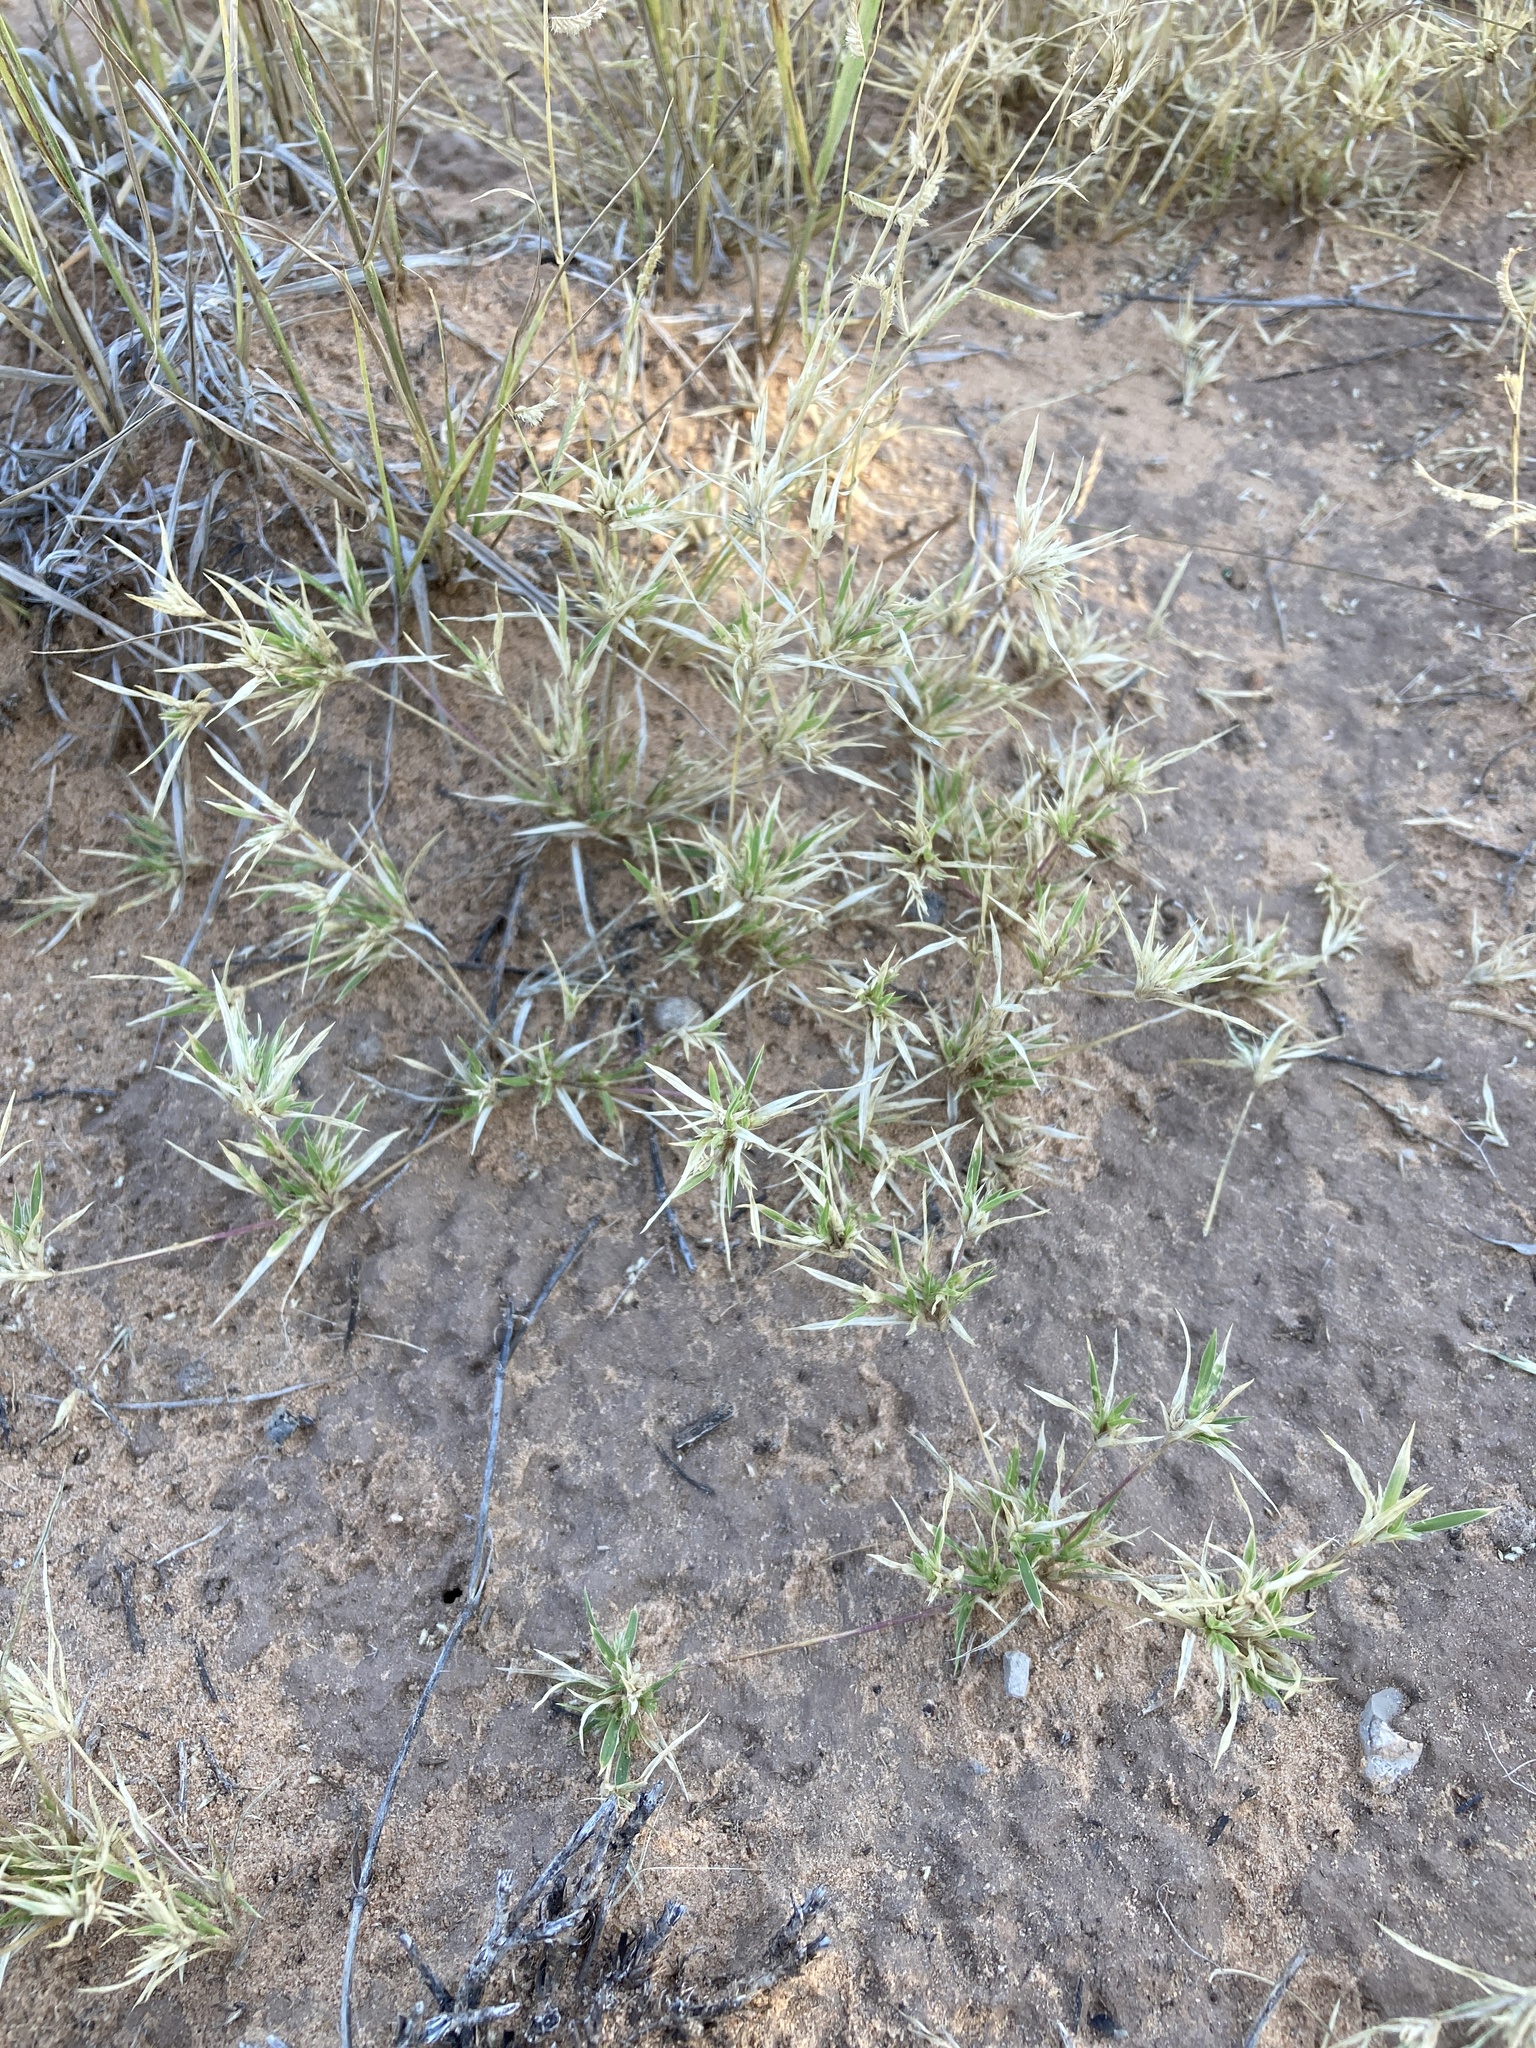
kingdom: Plantae
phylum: Tracheophyta
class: Liliopsida
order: Poales
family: Poaceae
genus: Munroa
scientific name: Munroa squarrosa
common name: False buffalo grass
